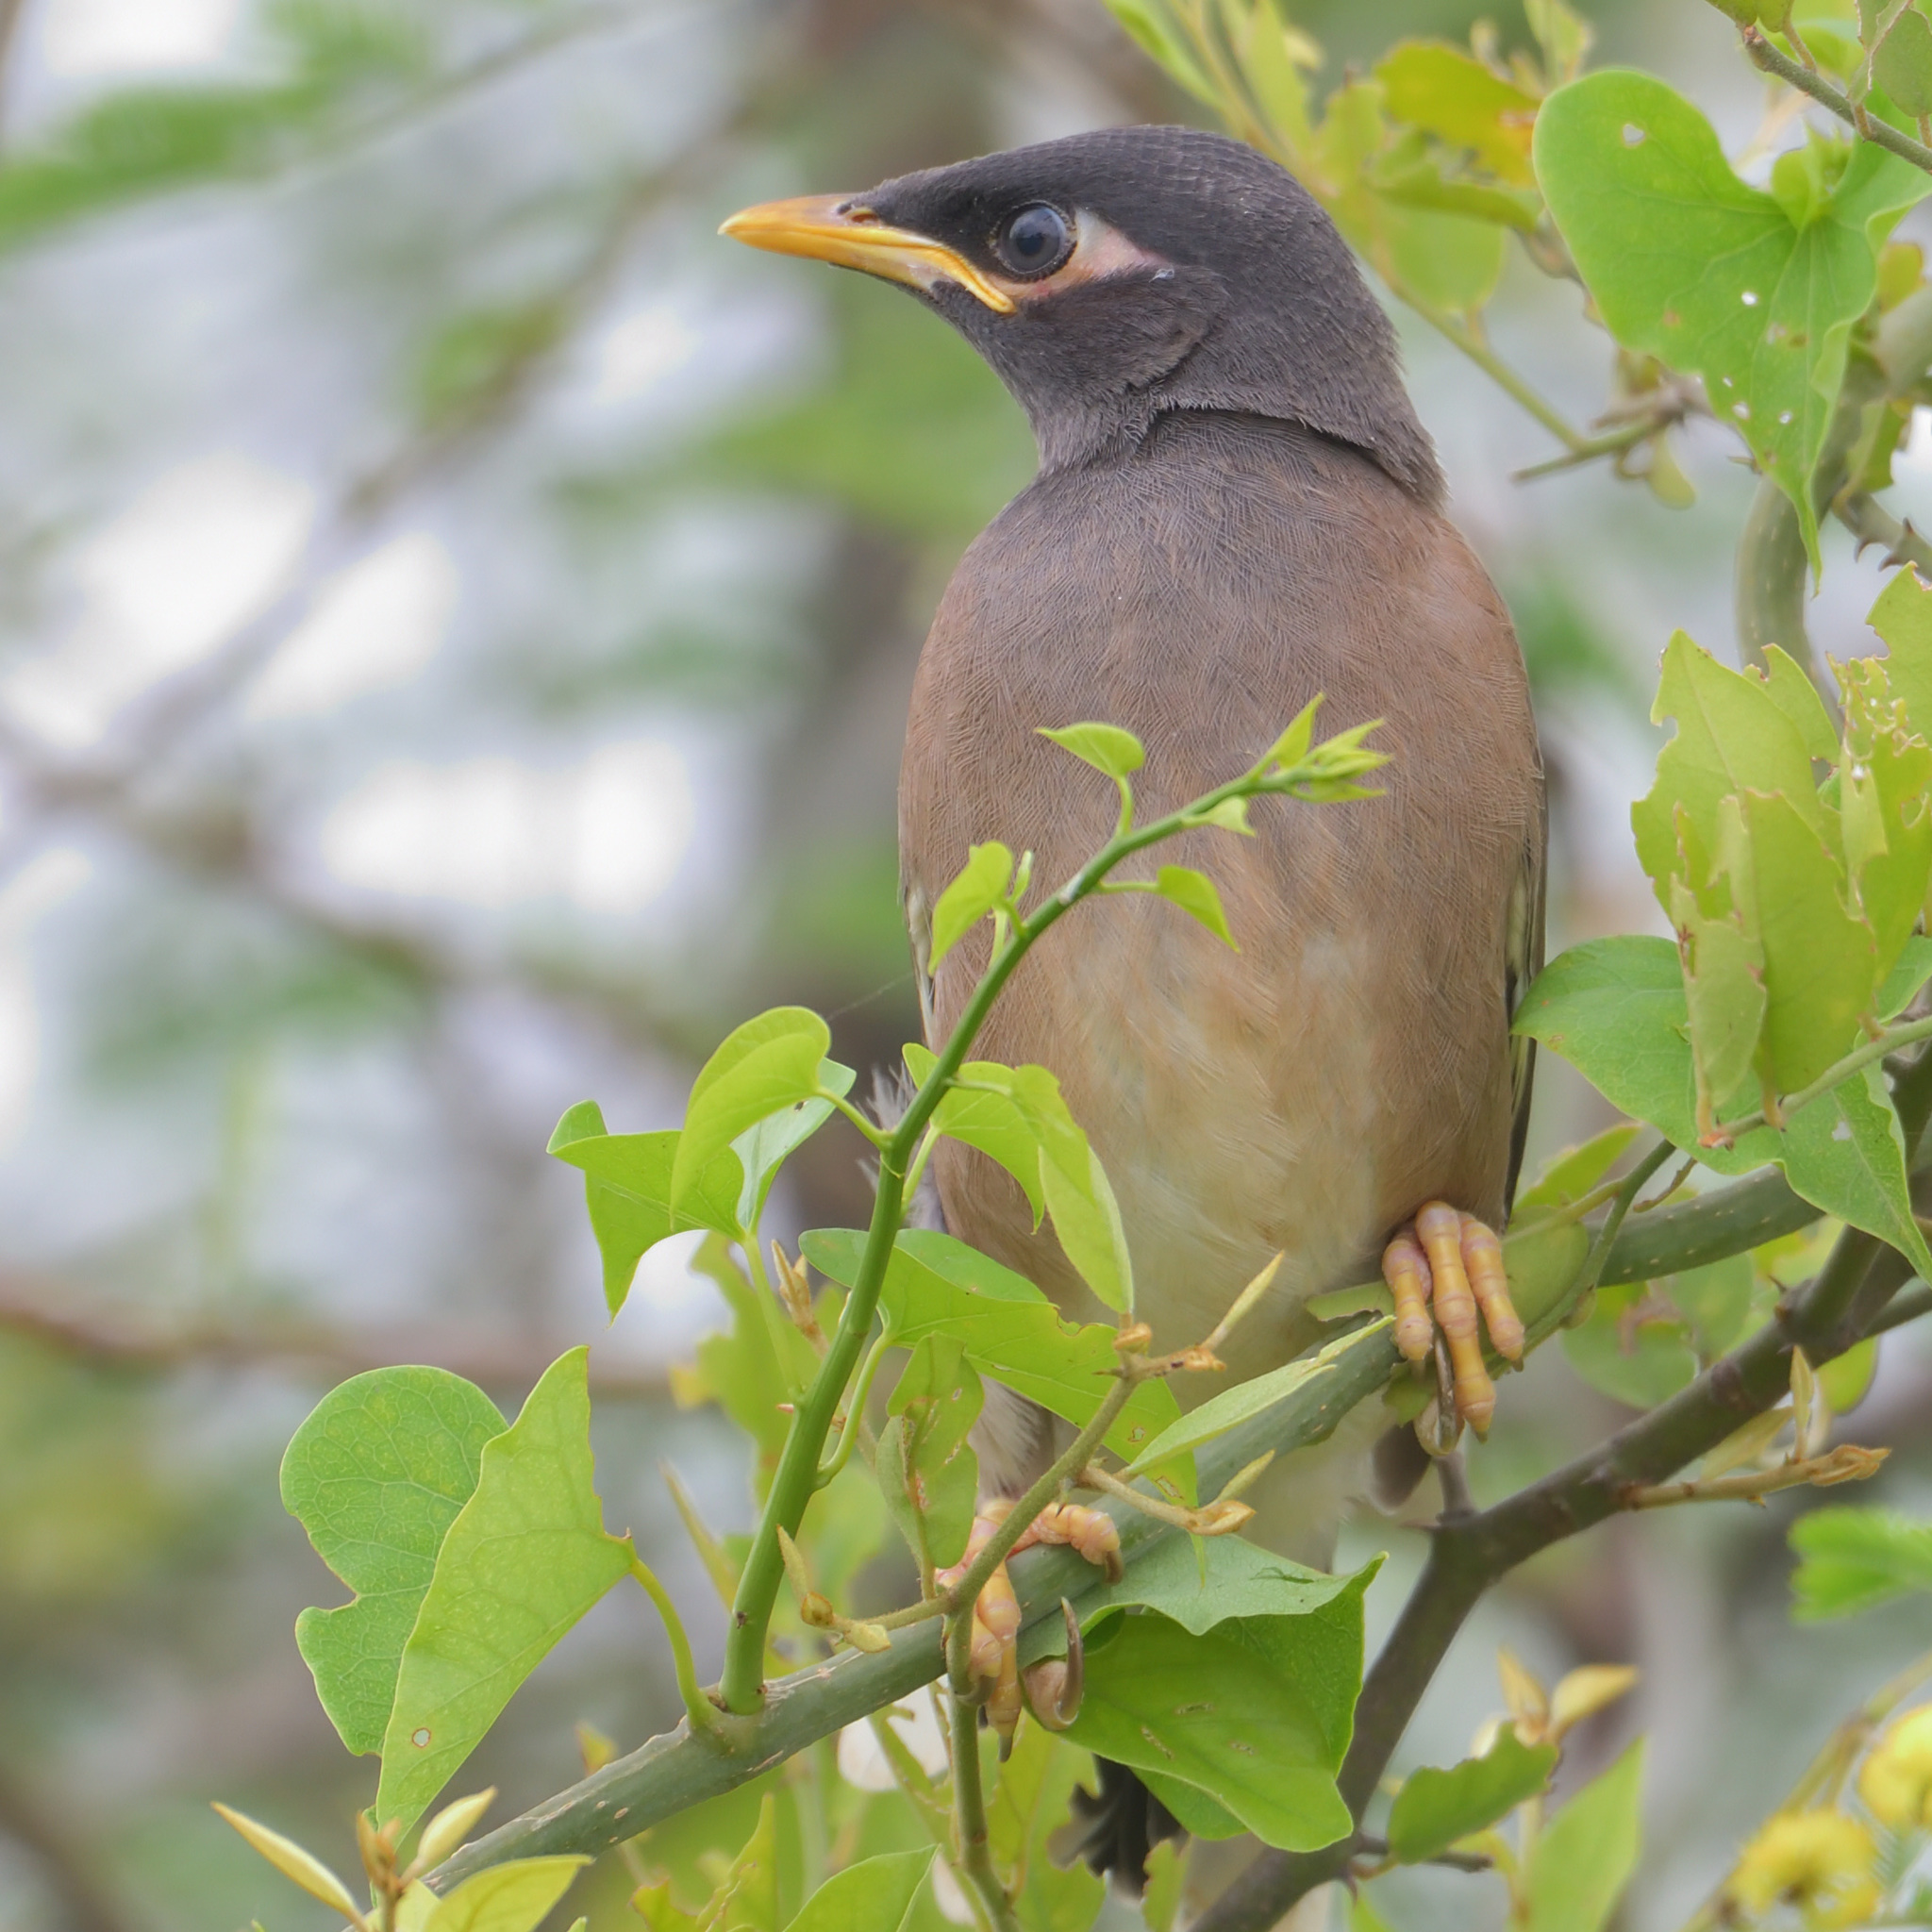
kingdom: Animalia
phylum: Chordata
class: Aves
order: Passeriformes
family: Sturnidae
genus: Acridotheres
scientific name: Acridotheres tristis
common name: Common myna
